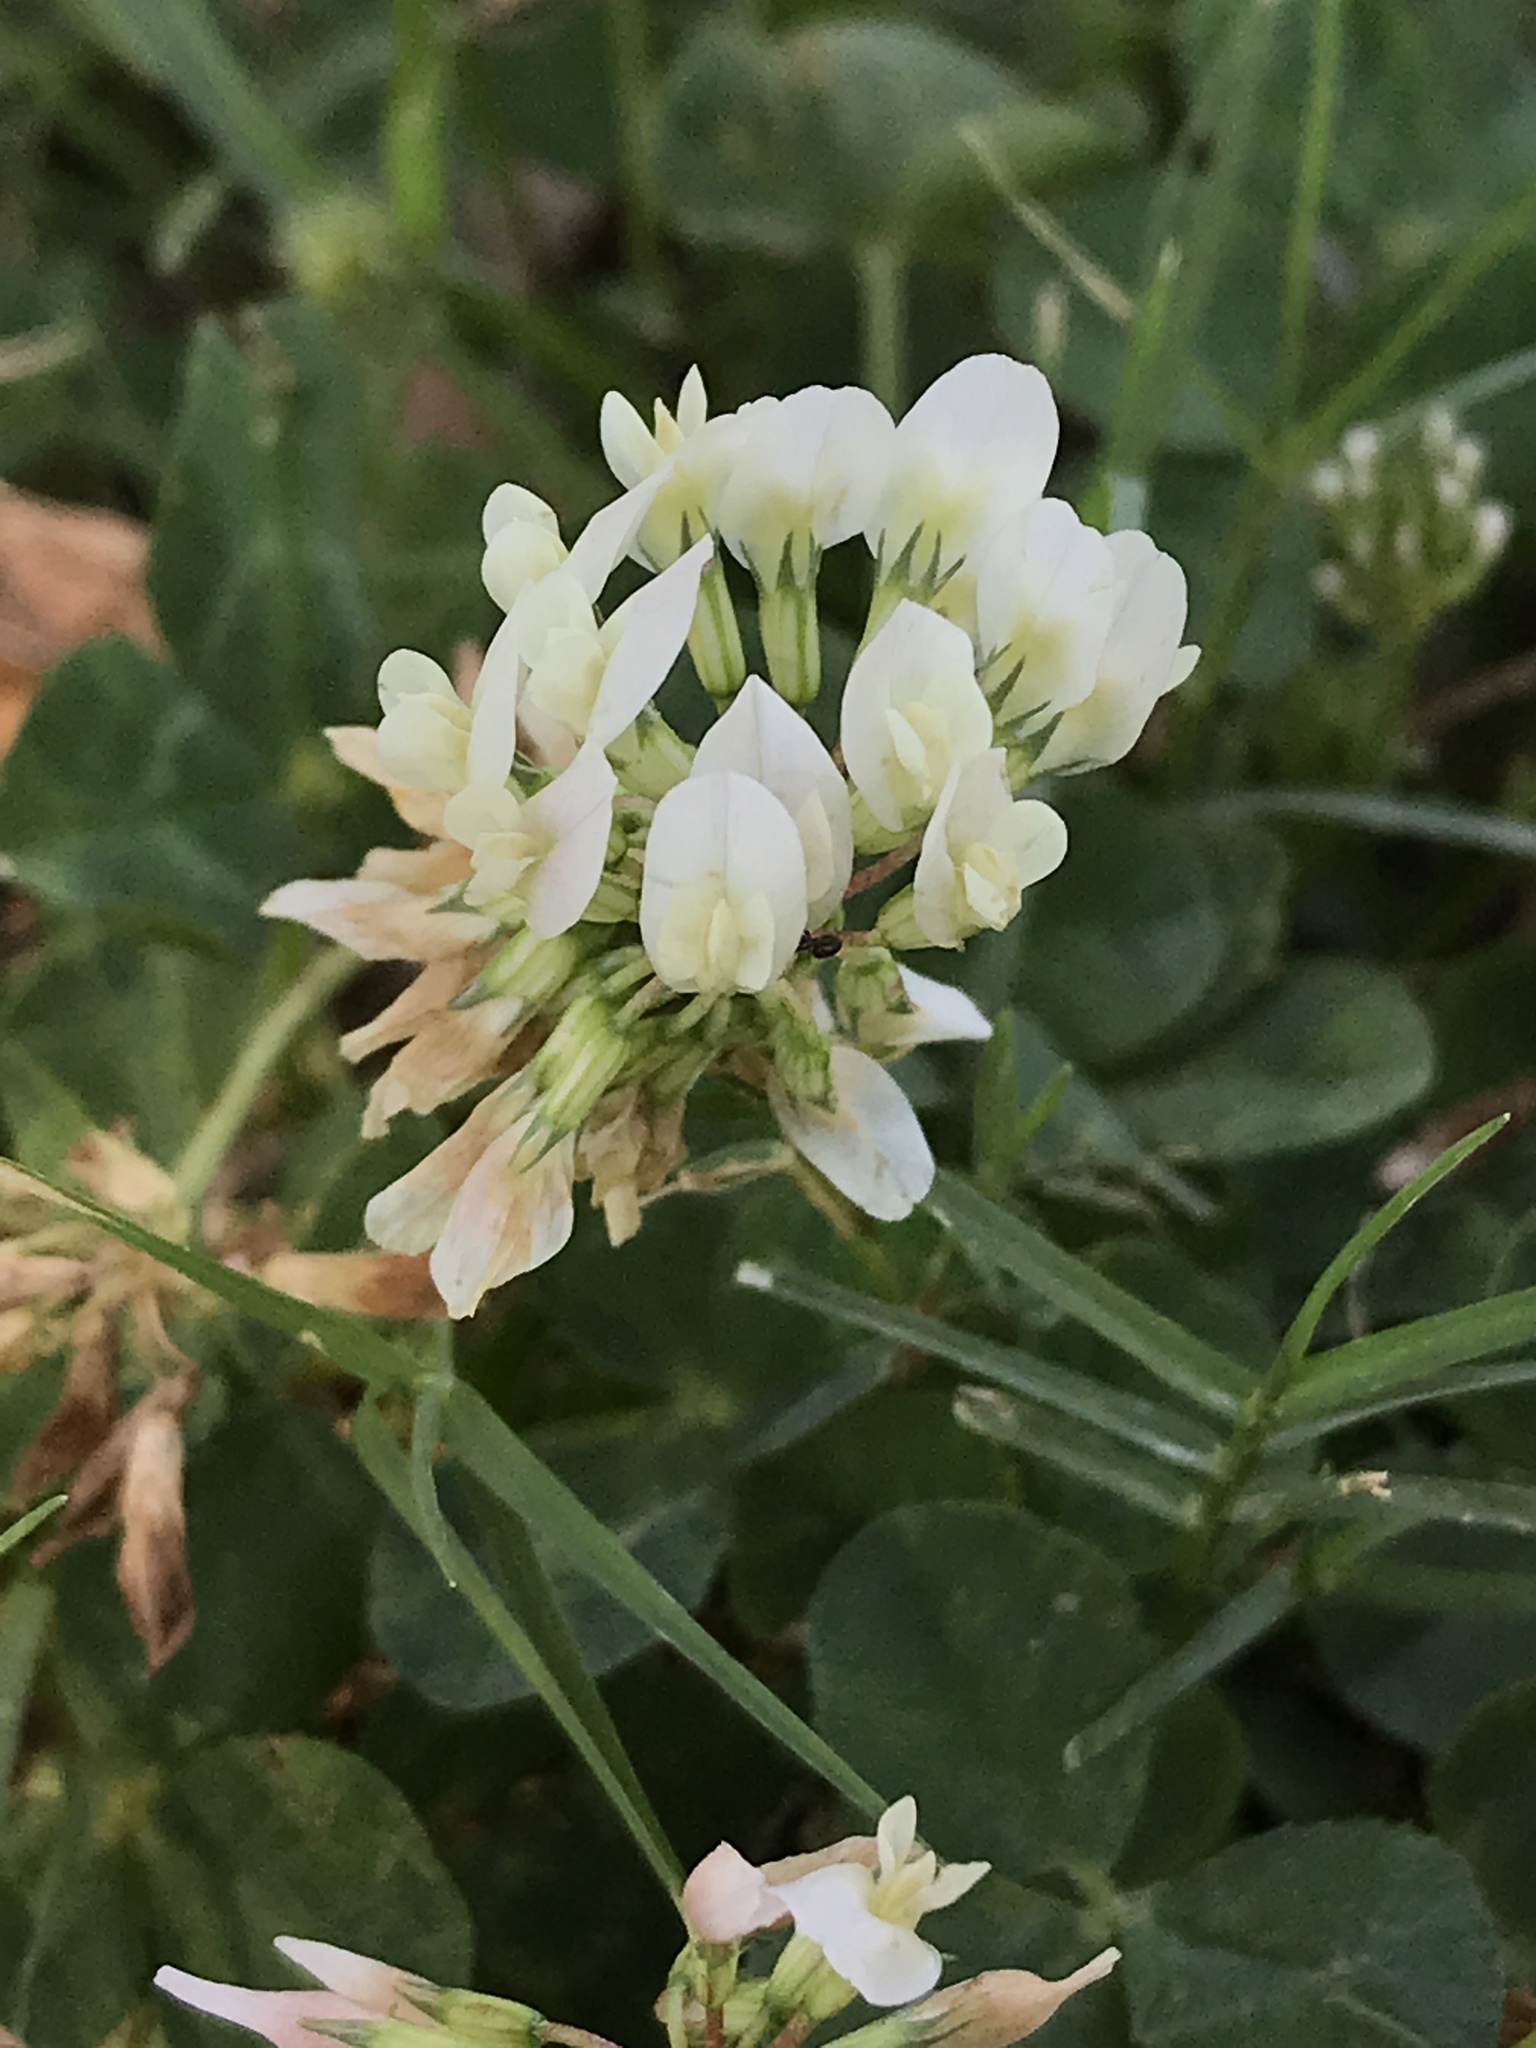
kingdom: Plantae
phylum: Tracheophyta
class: Magnoliopsida
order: Fabales
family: Fabaceae
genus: Trifolium
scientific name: Trifolium repens
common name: White clover
